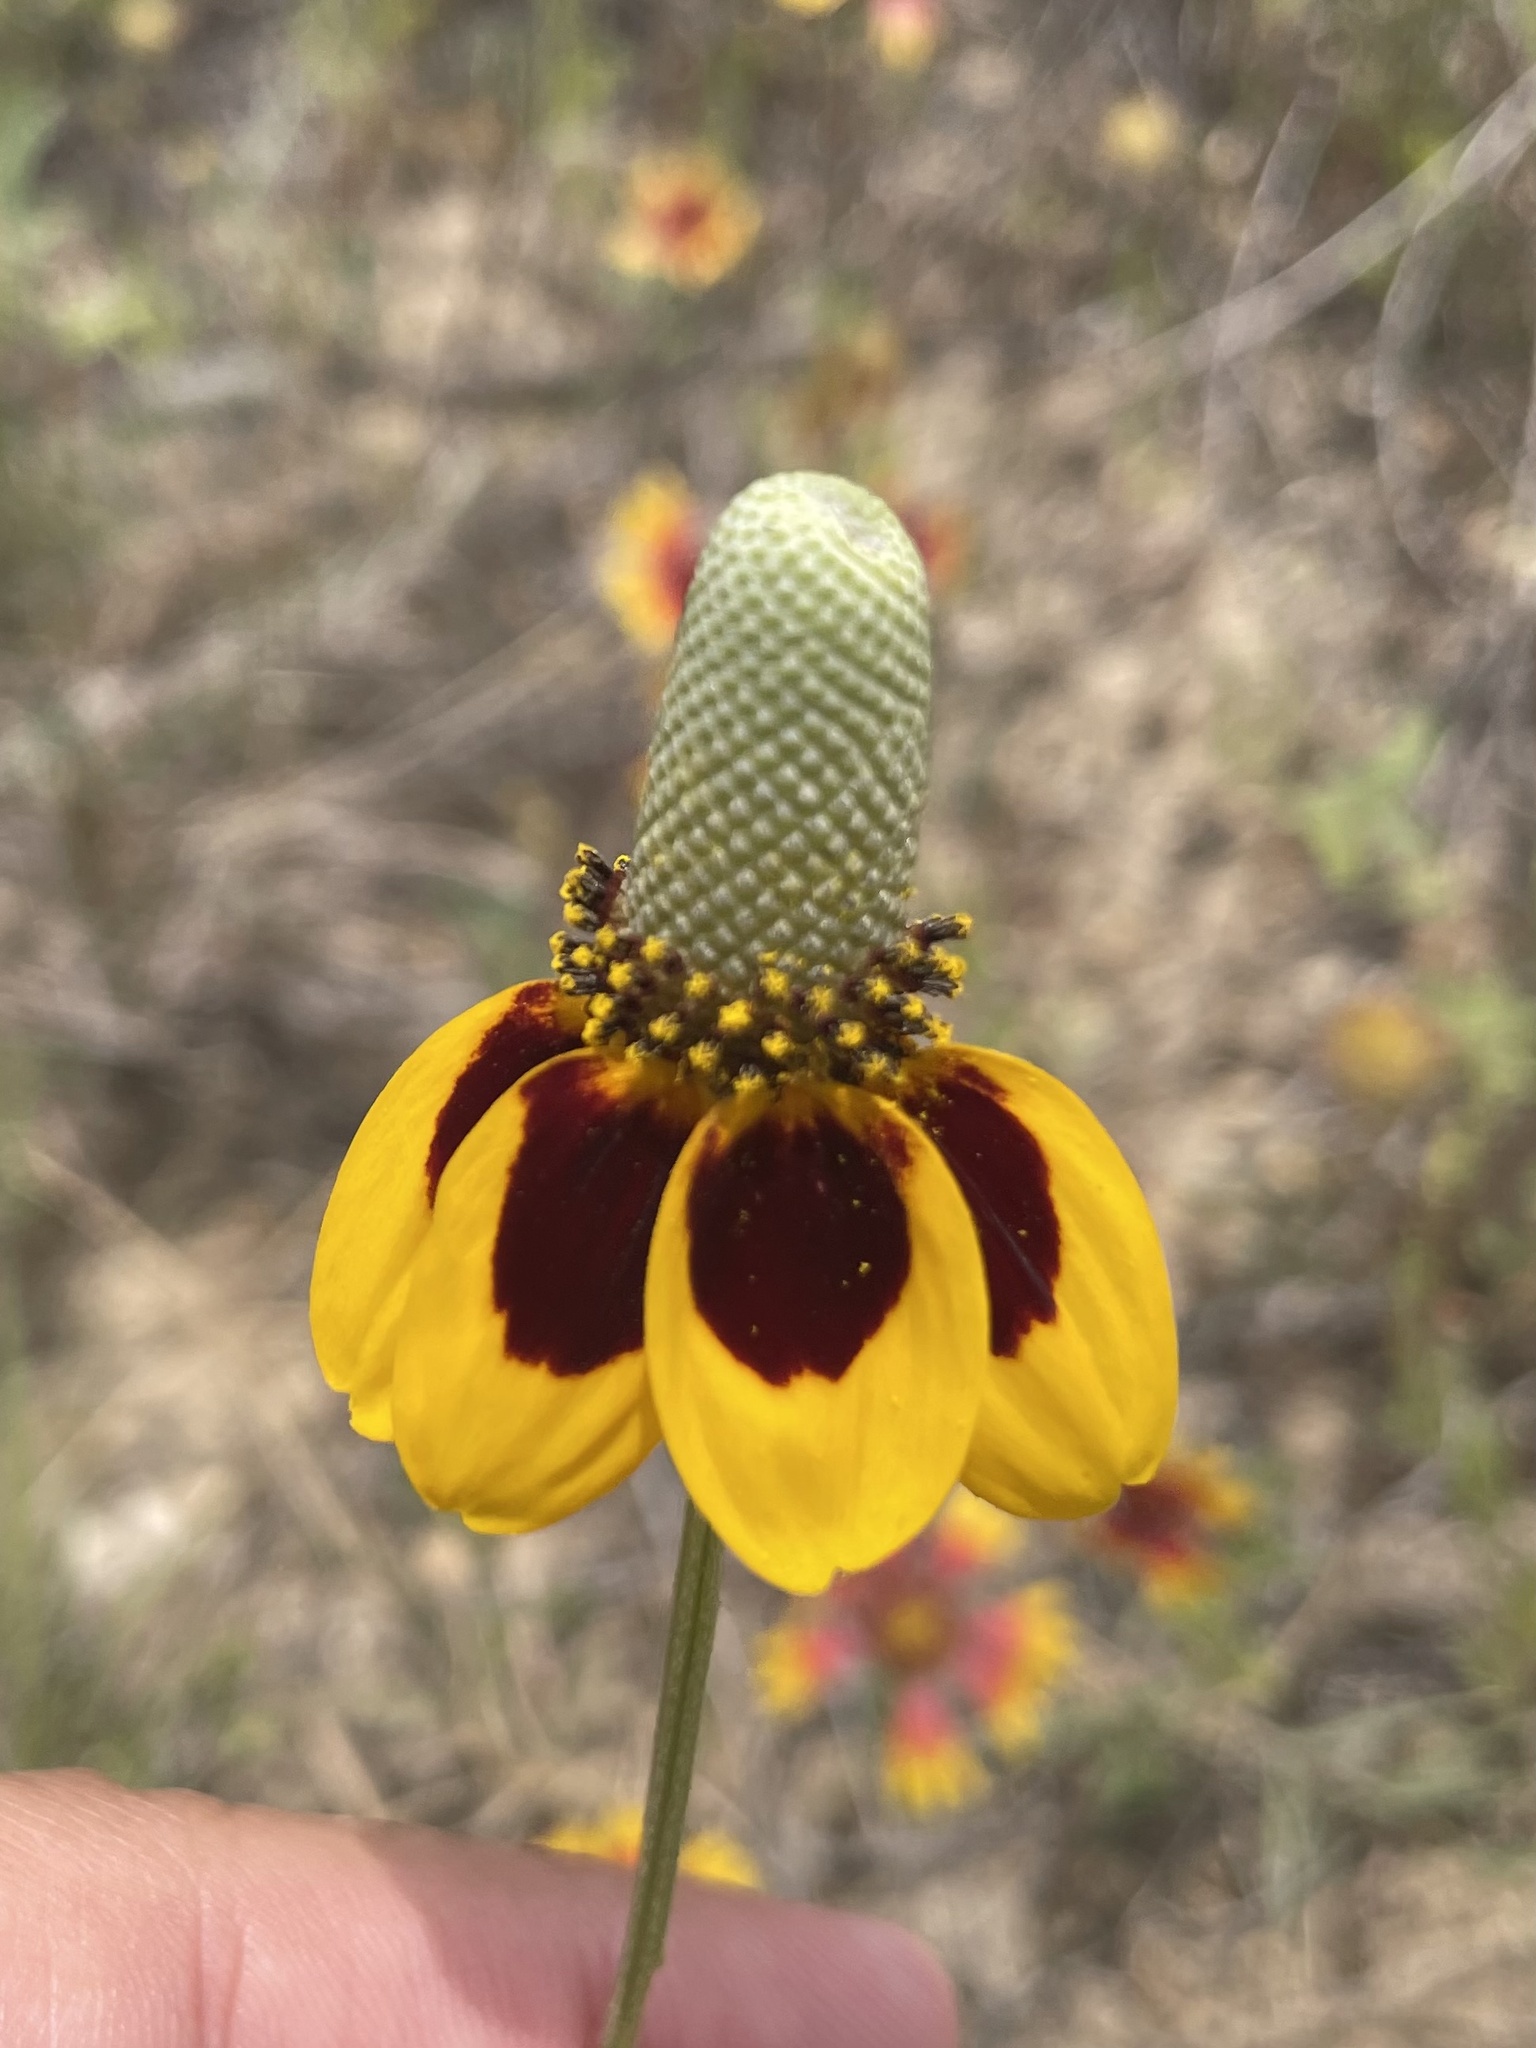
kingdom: Plantae
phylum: Tracheophyta
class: Magnoliopsida
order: Asterales
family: Asteraceae
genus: Ratibida
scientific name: Ratibida columnifera
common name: Prairie coneflower
